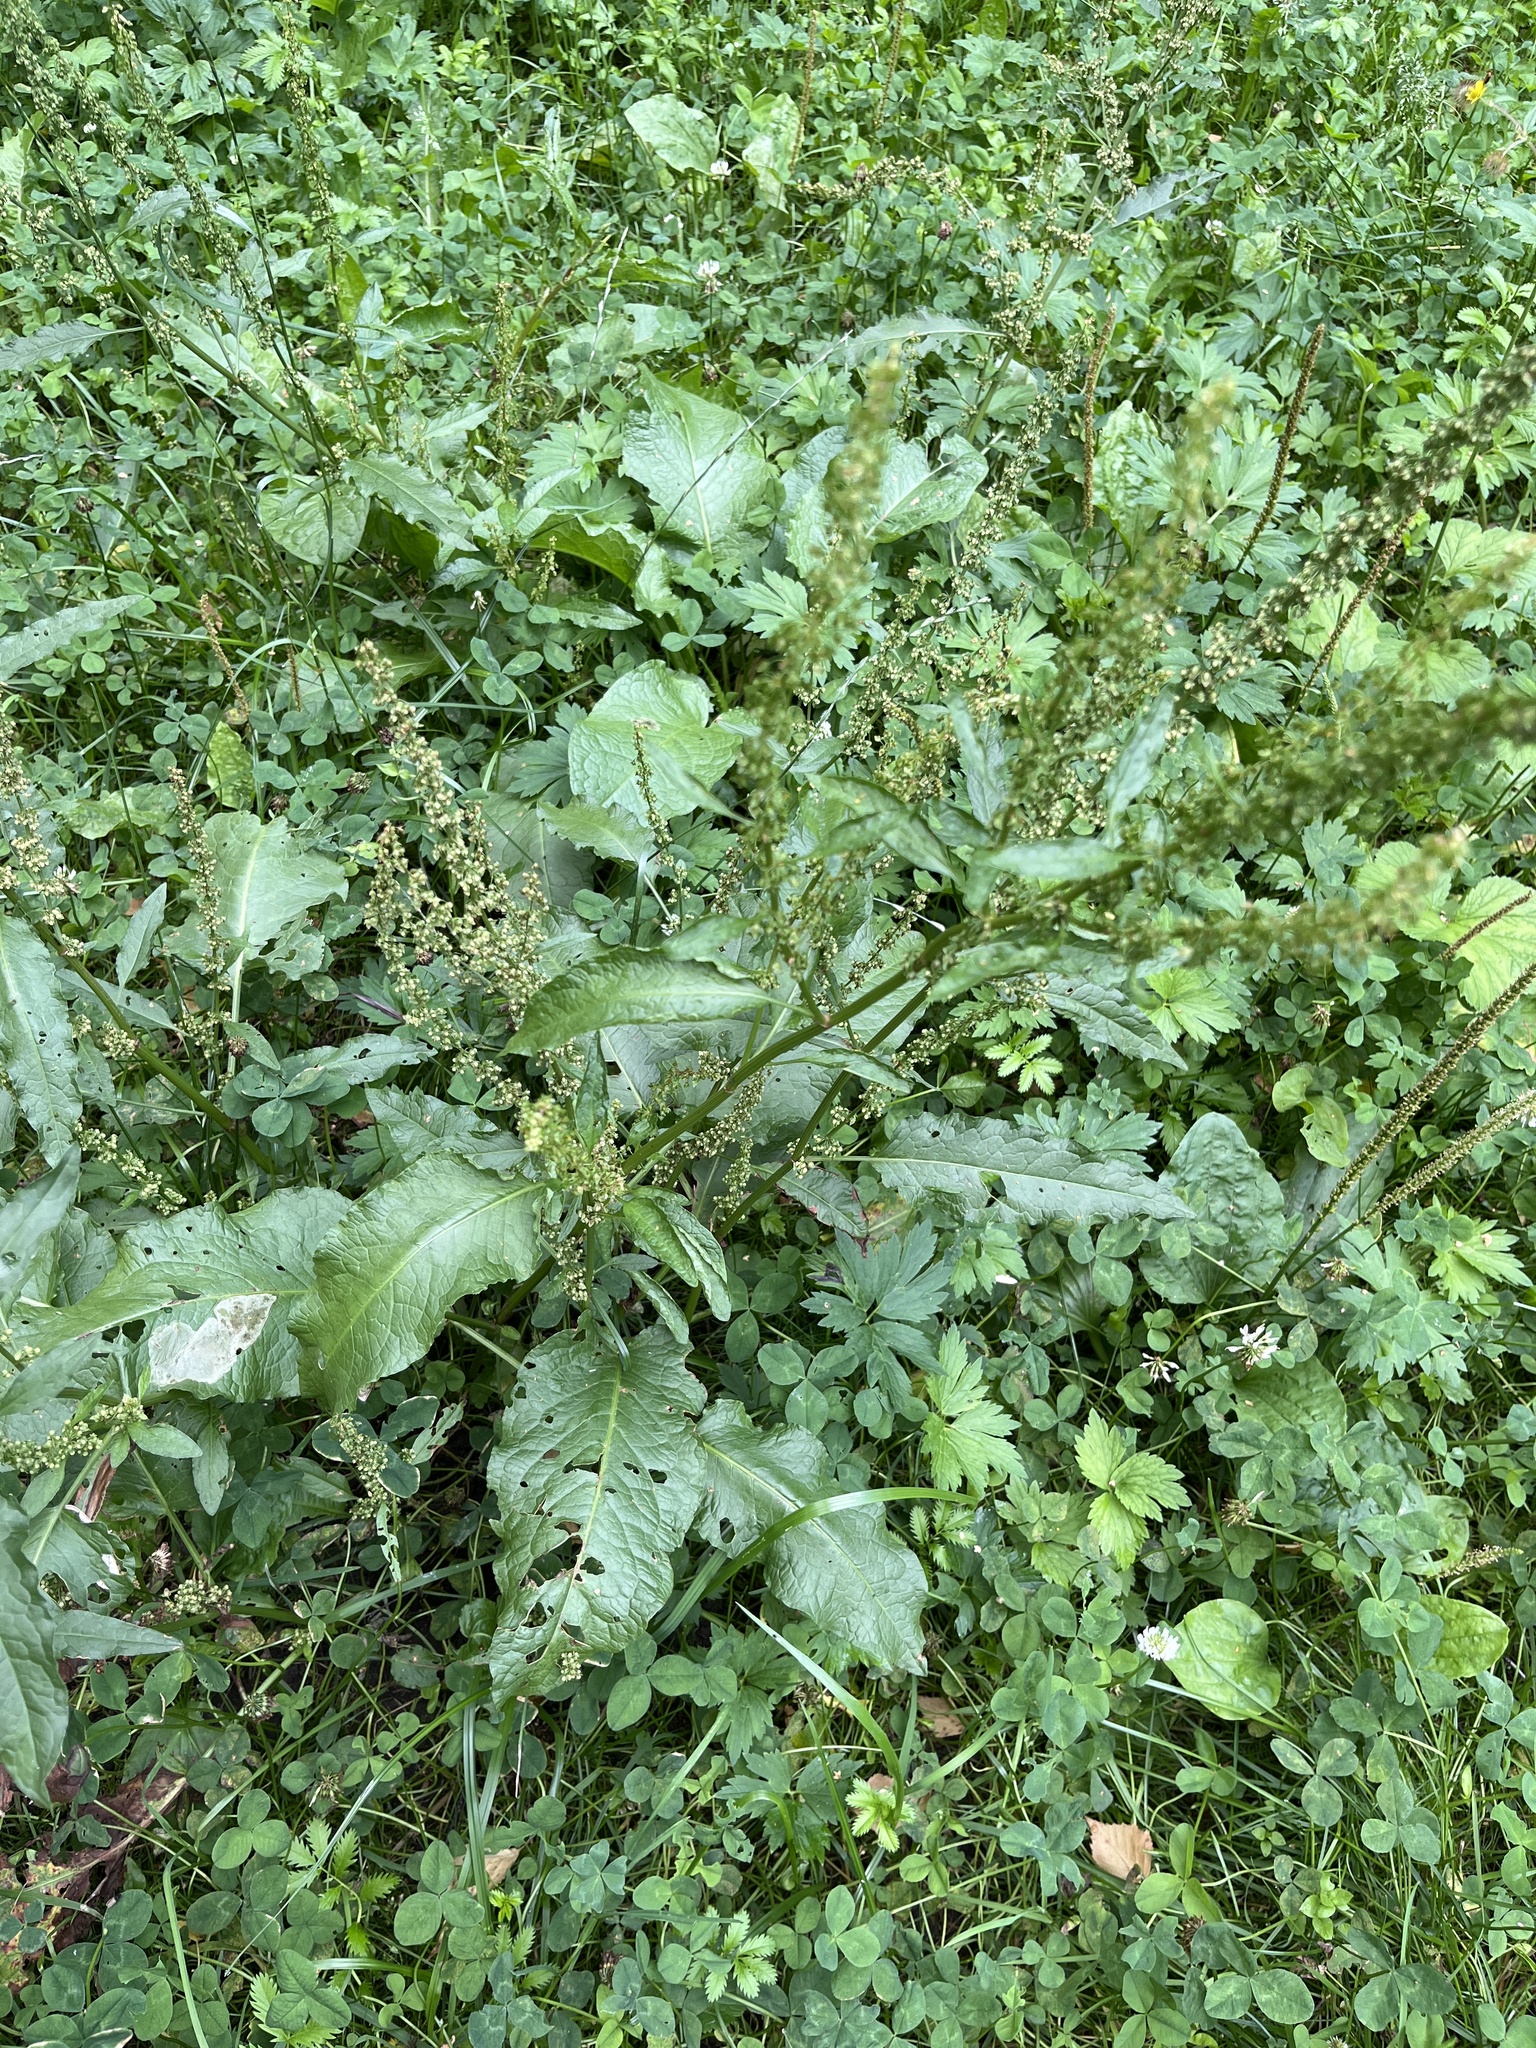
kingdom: Plantae
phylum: Tracheophyta
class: Magnoliopsida
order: Caryophyllales
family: Polygonaceae
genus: Rumex
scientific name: Rumex obtusifolius
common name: Bitter dock
